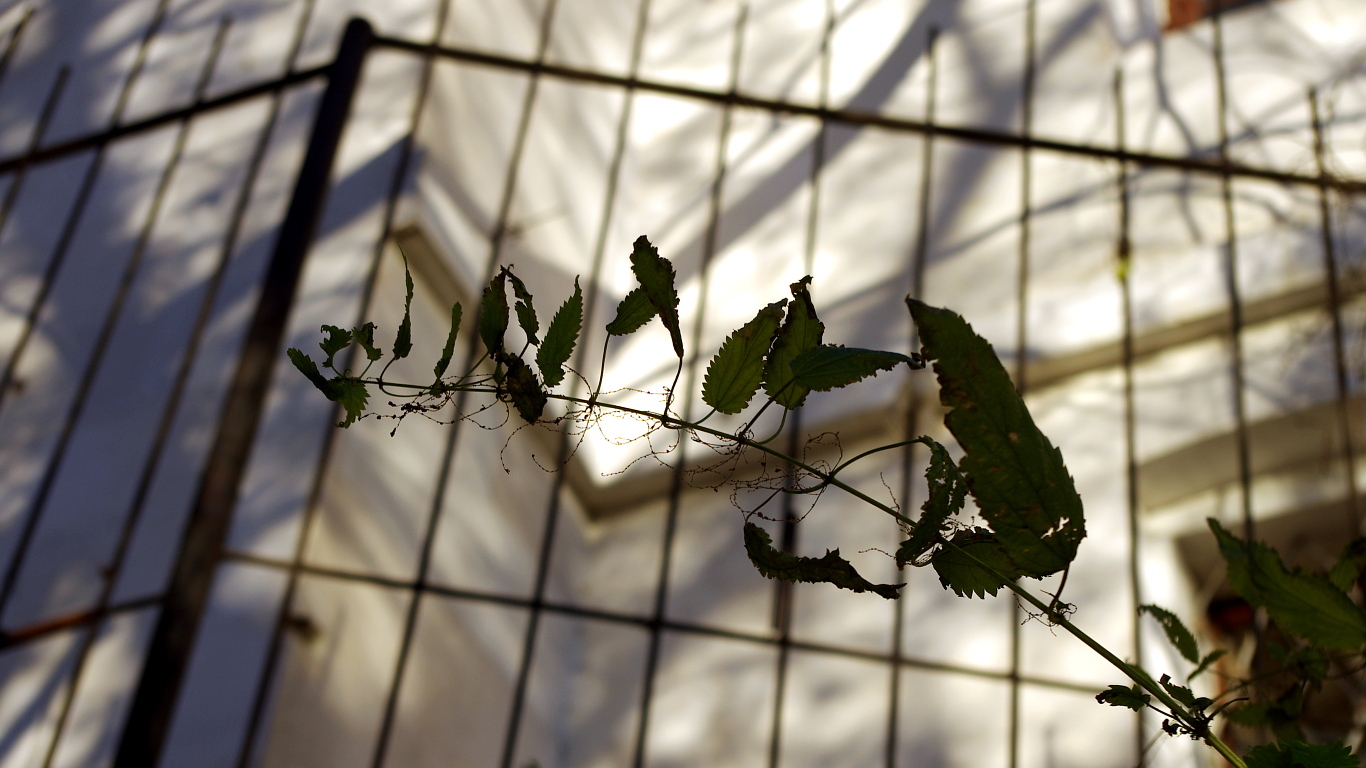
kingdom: Plantae
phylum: Tracheophyta
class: Magnoliopsida
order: Rosales
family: Urticaceae
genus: Urtica
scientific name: Urtica dioica
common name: Common nettle
